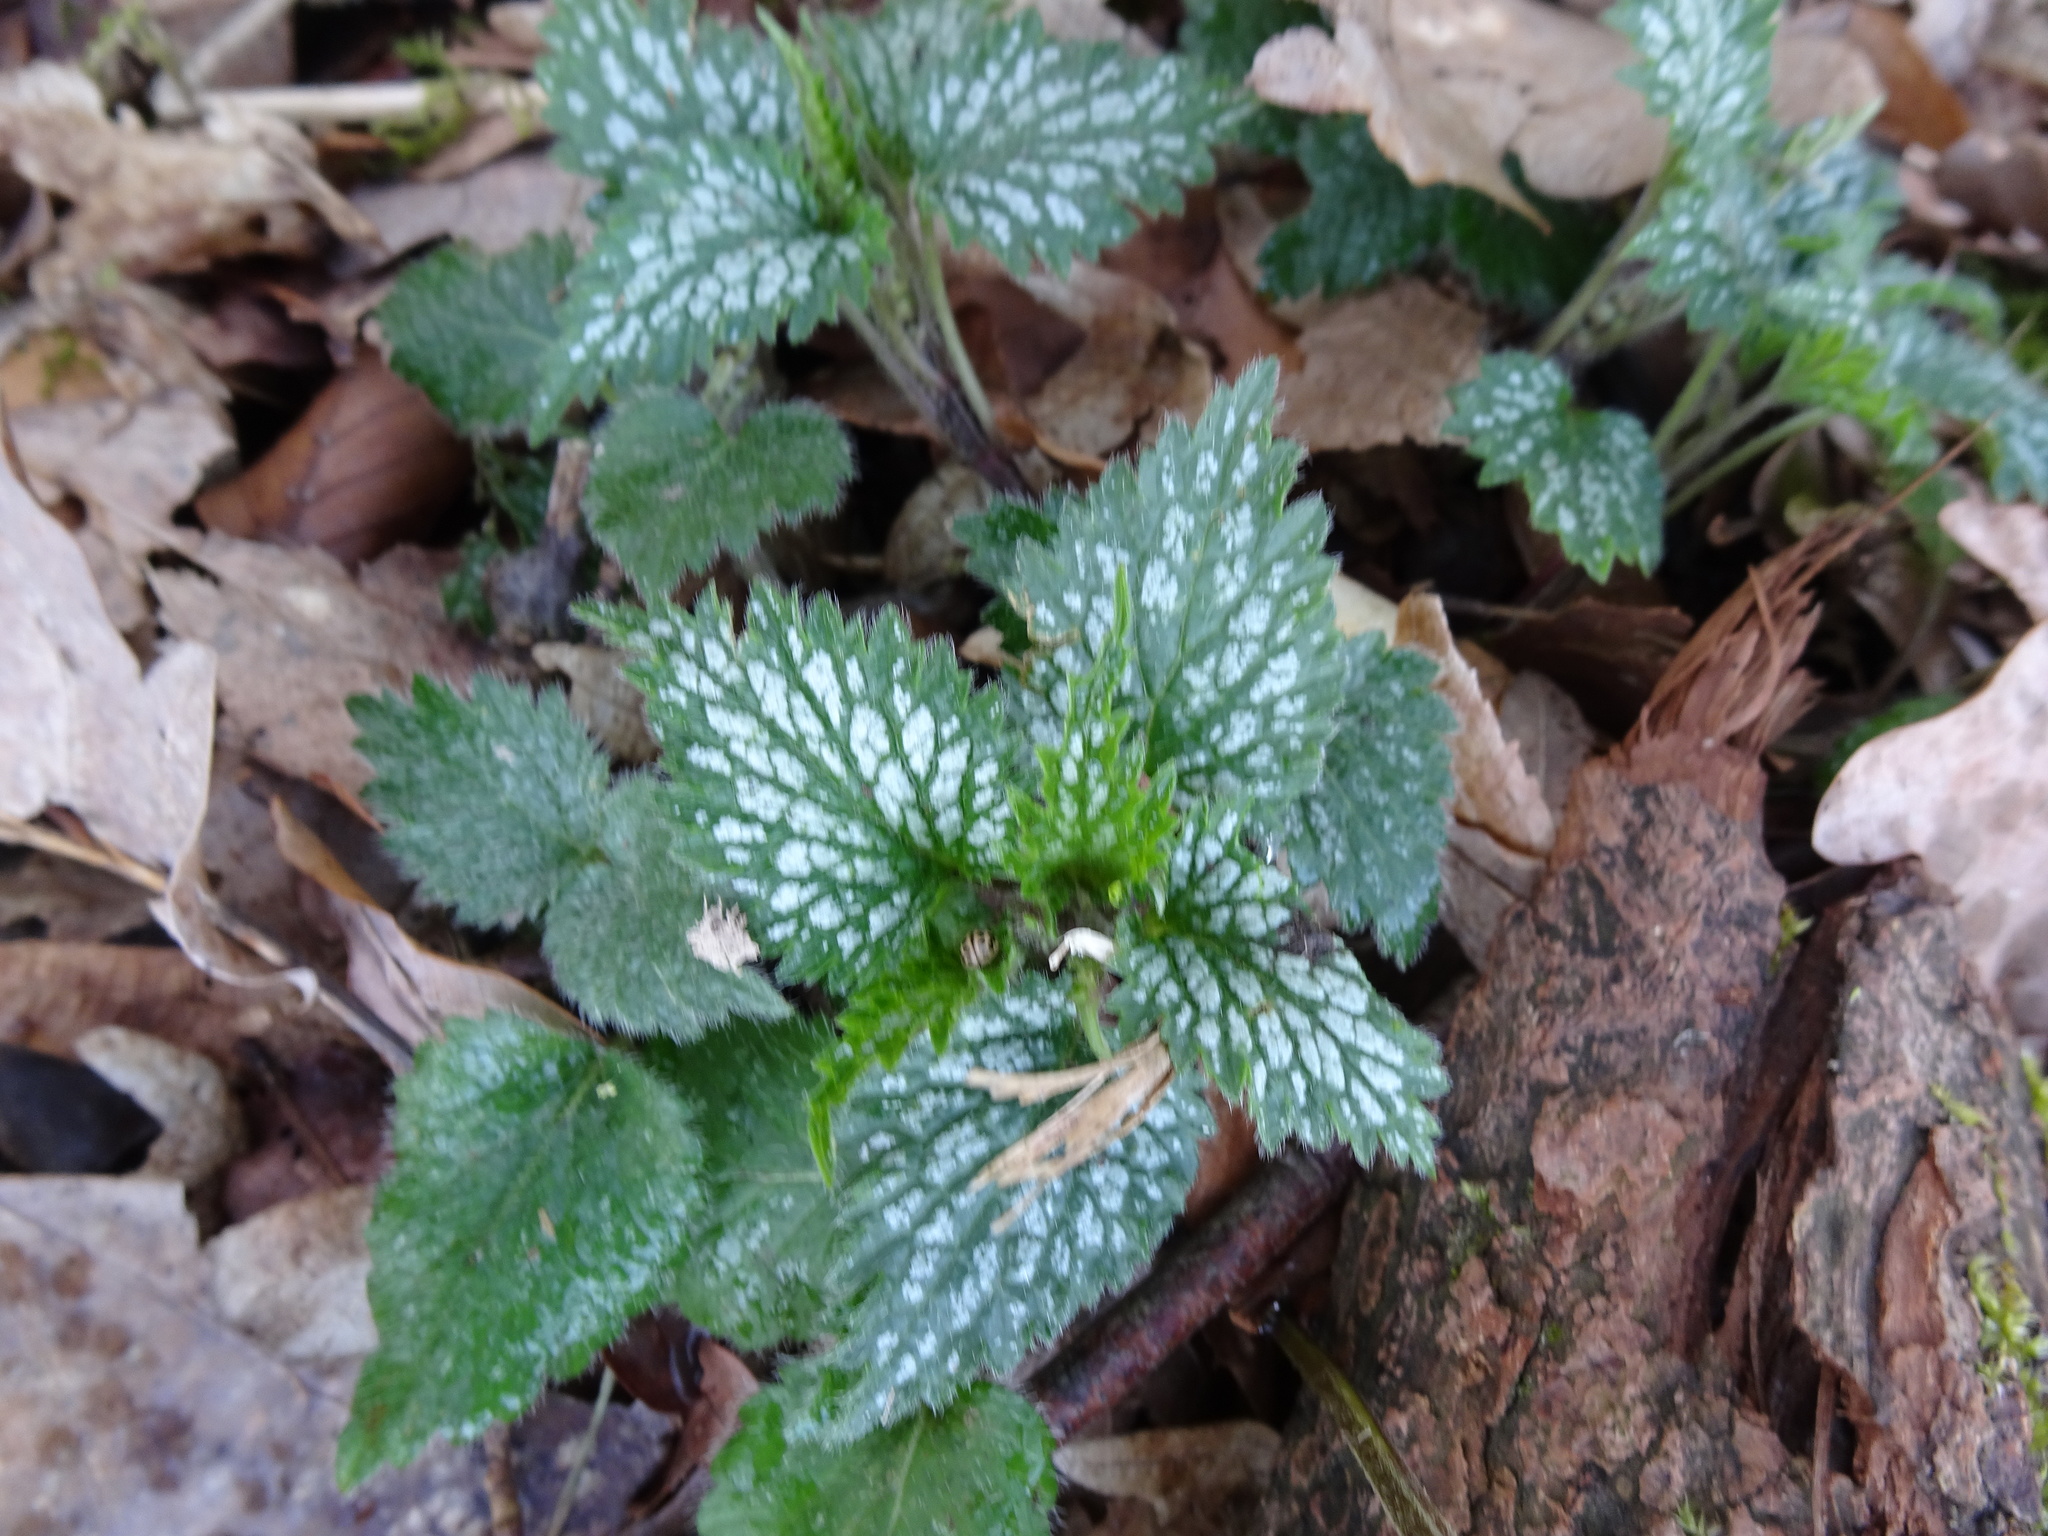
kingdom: Plantae
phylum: Tracheophyta
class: Magnoliopsida
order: Lamiales
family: Lamiaceae
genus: Lamium
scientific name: Lamium galeobdolon
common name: Yellow archangel
